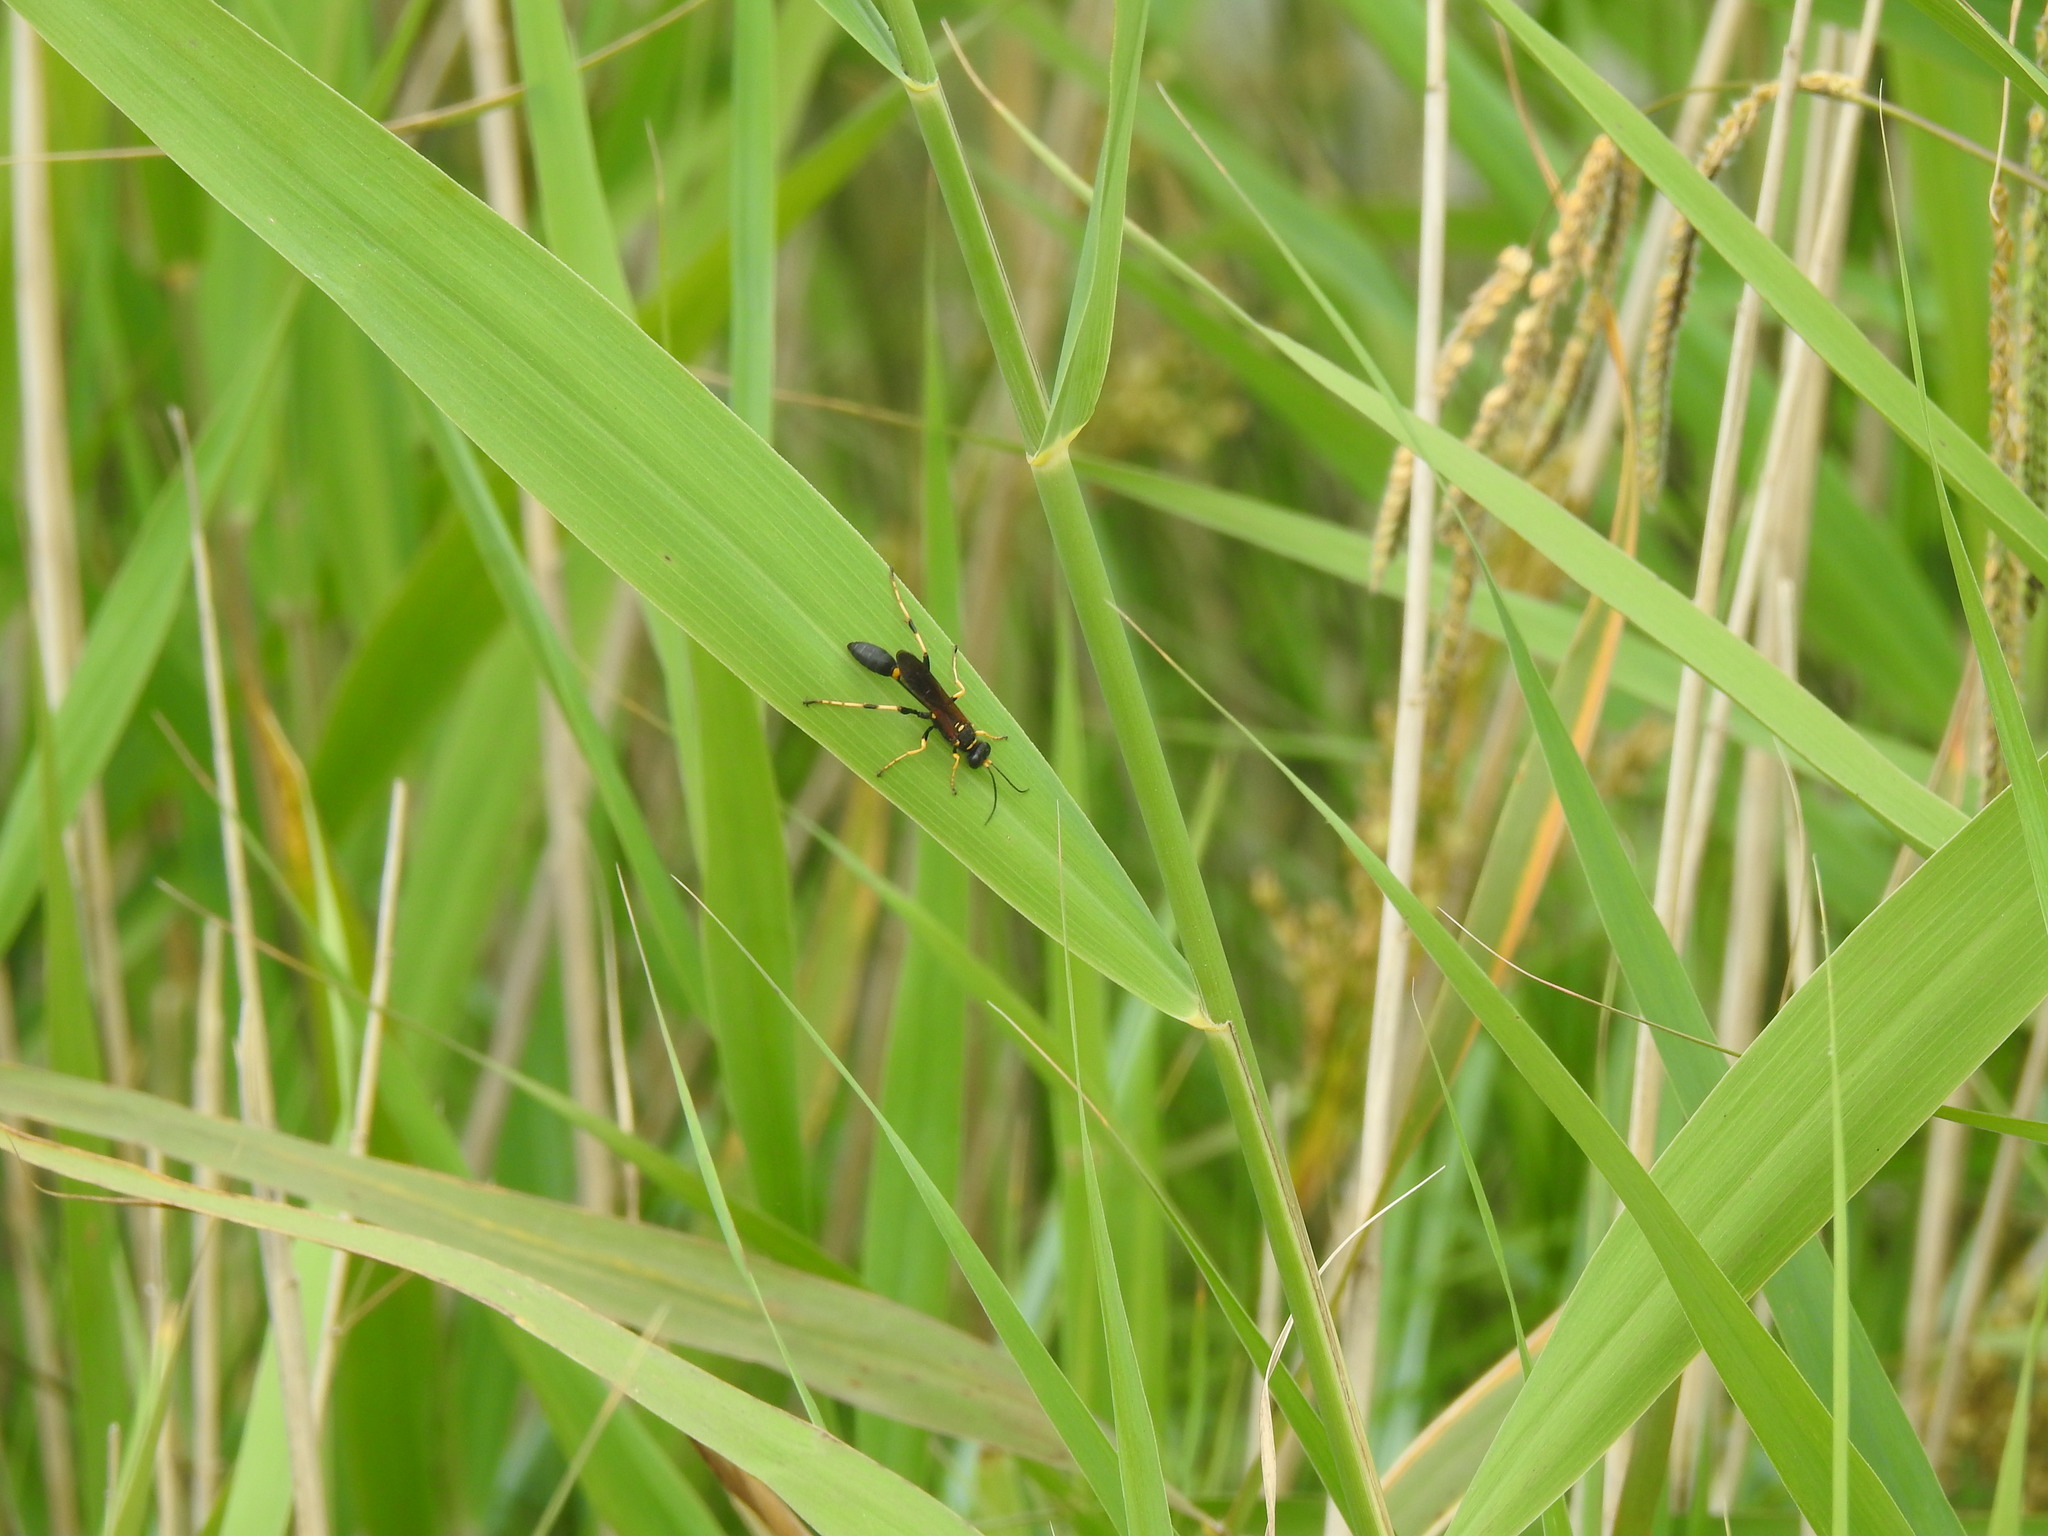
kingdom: Animalia
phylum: Arthropoda
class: Insecta
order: Hymenoptera
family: Sphecidae
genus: Sceliphron
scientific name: Sceliphron caementarium
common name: Mud dauber
